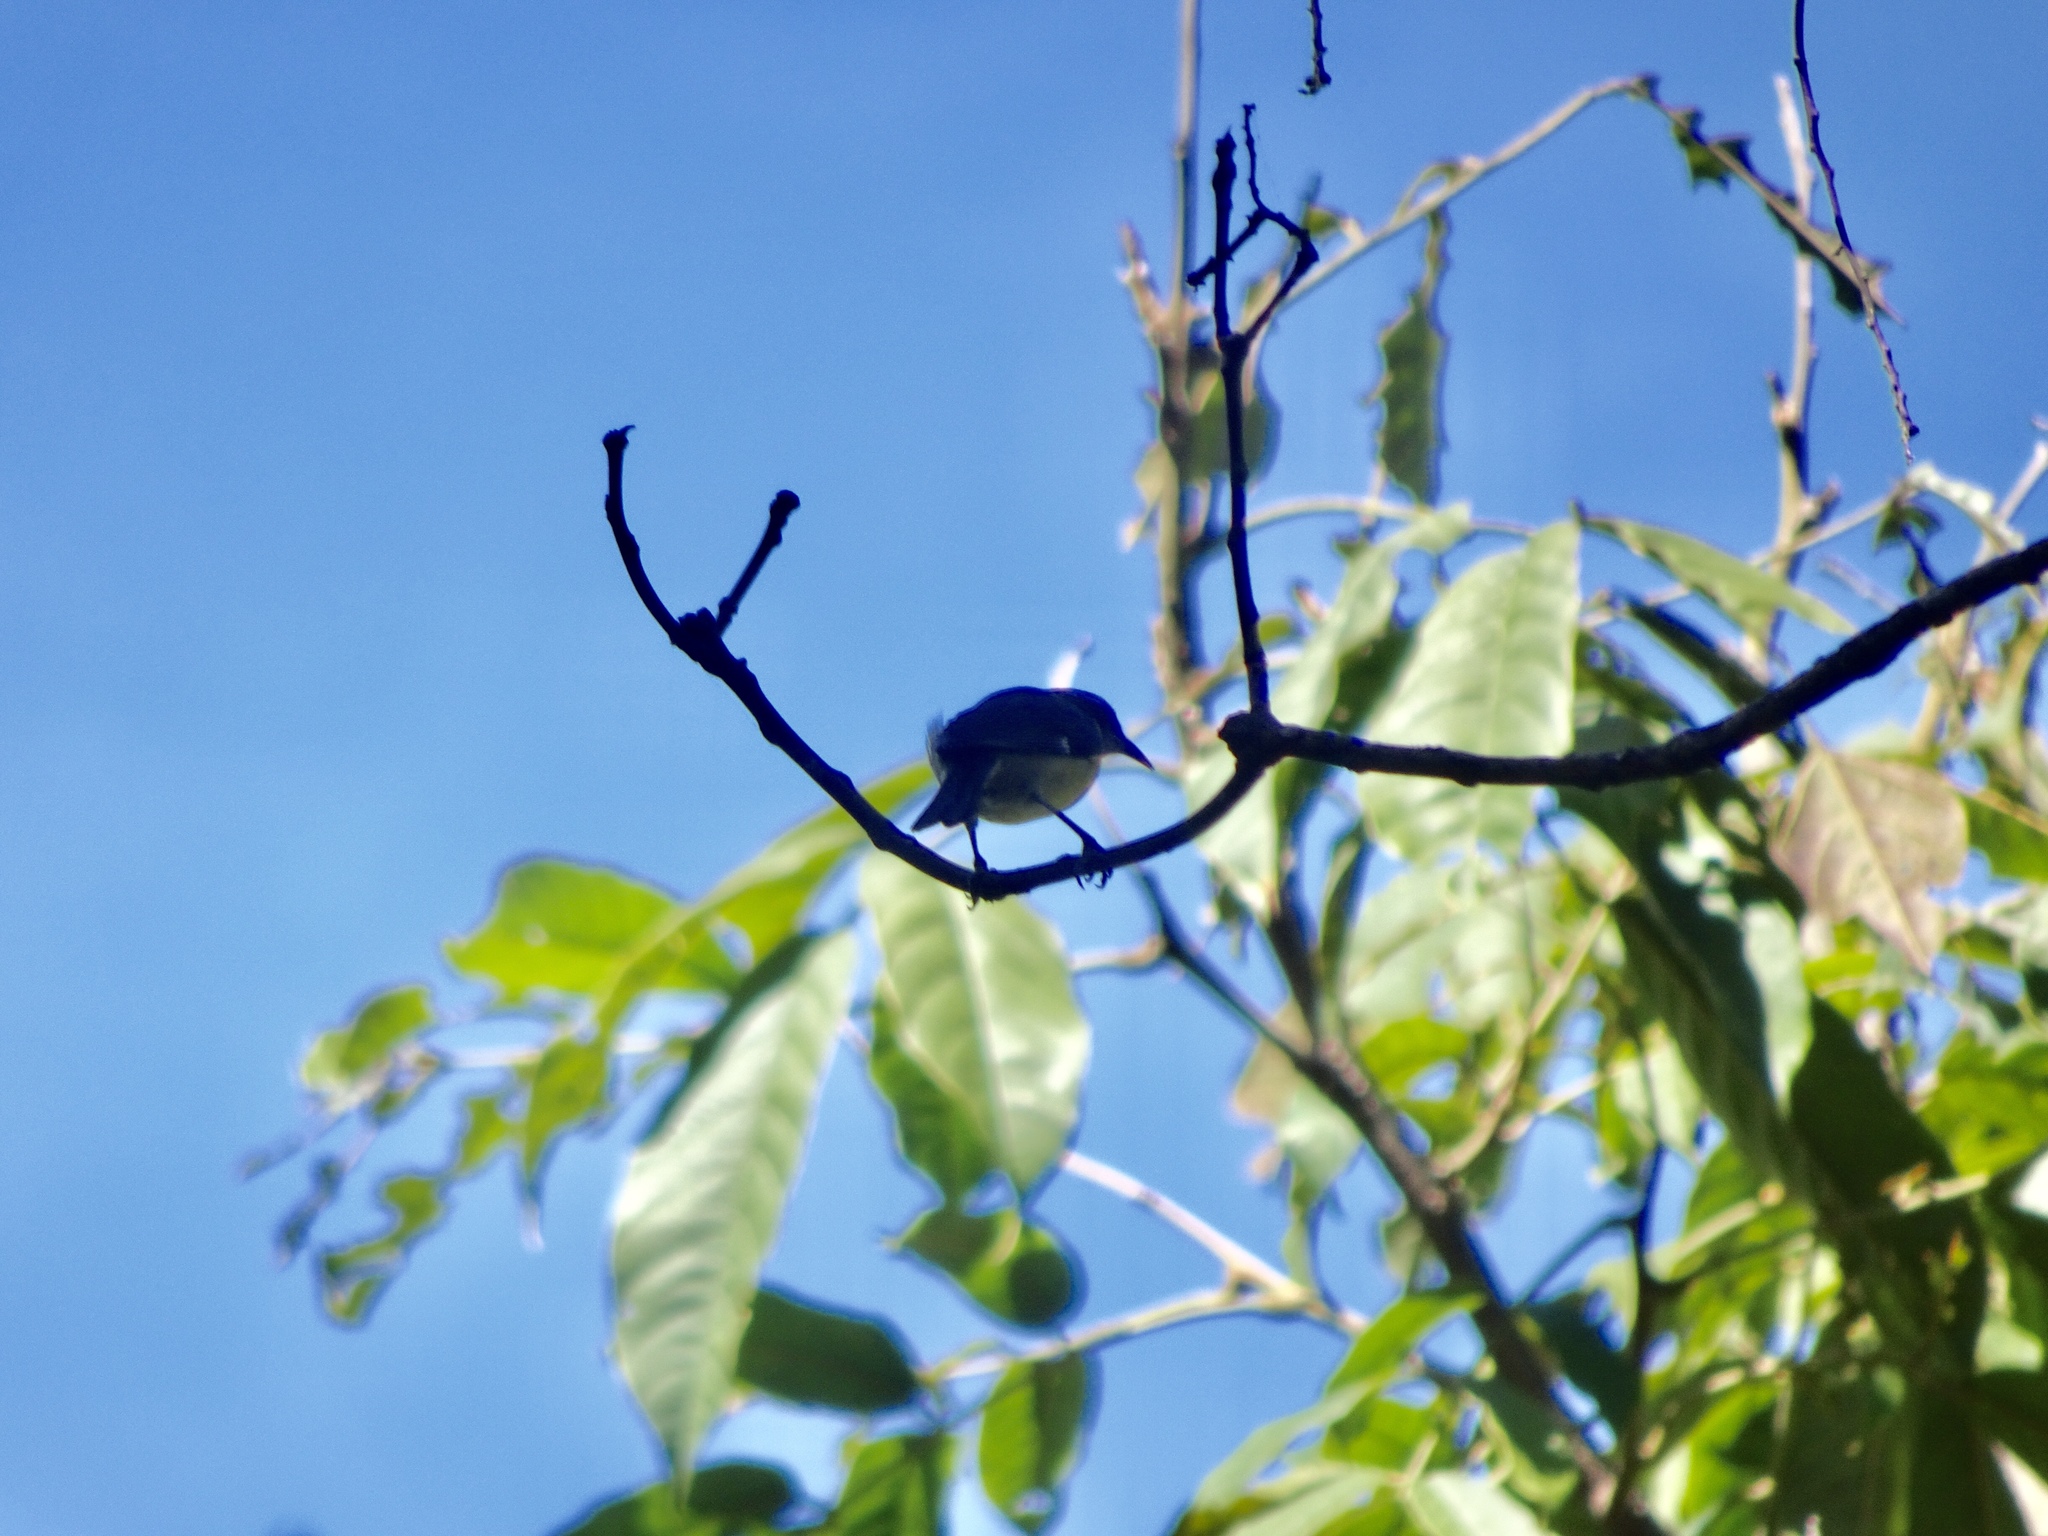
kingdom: Animalia
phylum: Chordata
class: Aves
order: Passeriformes
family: Thraupidae
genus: Coereba
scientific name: Coereba flaveola
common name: Bananaquit
